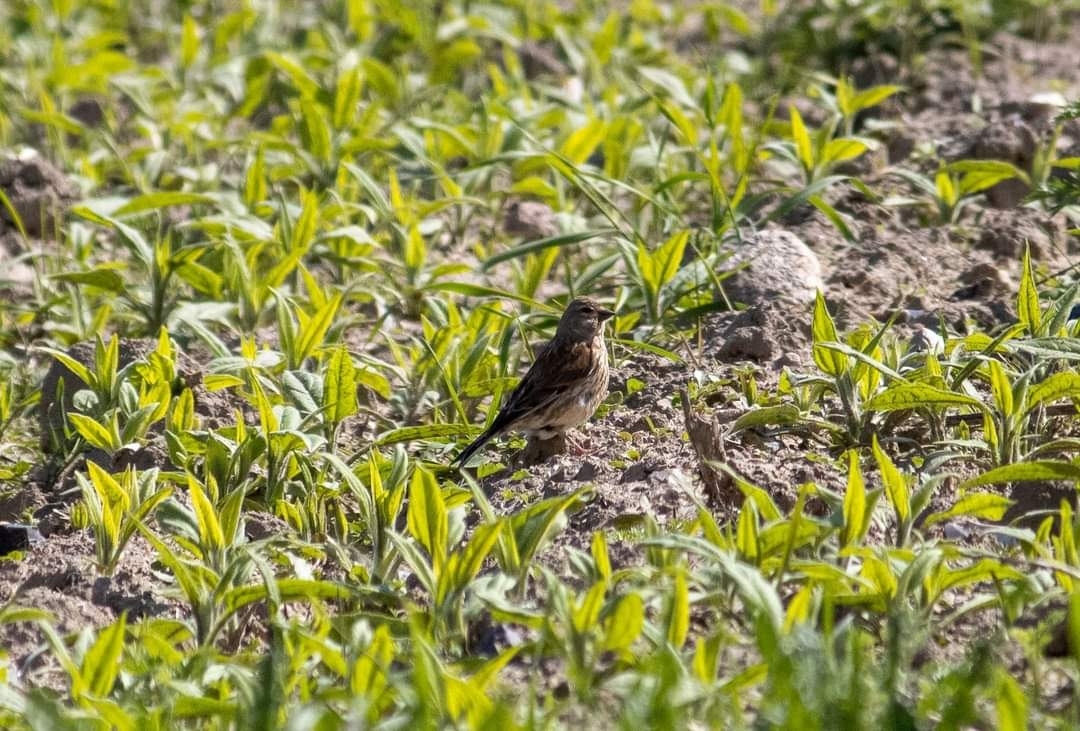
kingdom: Animalia
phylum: Chordata
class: Aves
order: Passeriformes
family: Fringillidae
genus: Linaria
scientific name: Linaria cannabina
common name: Common linnet
